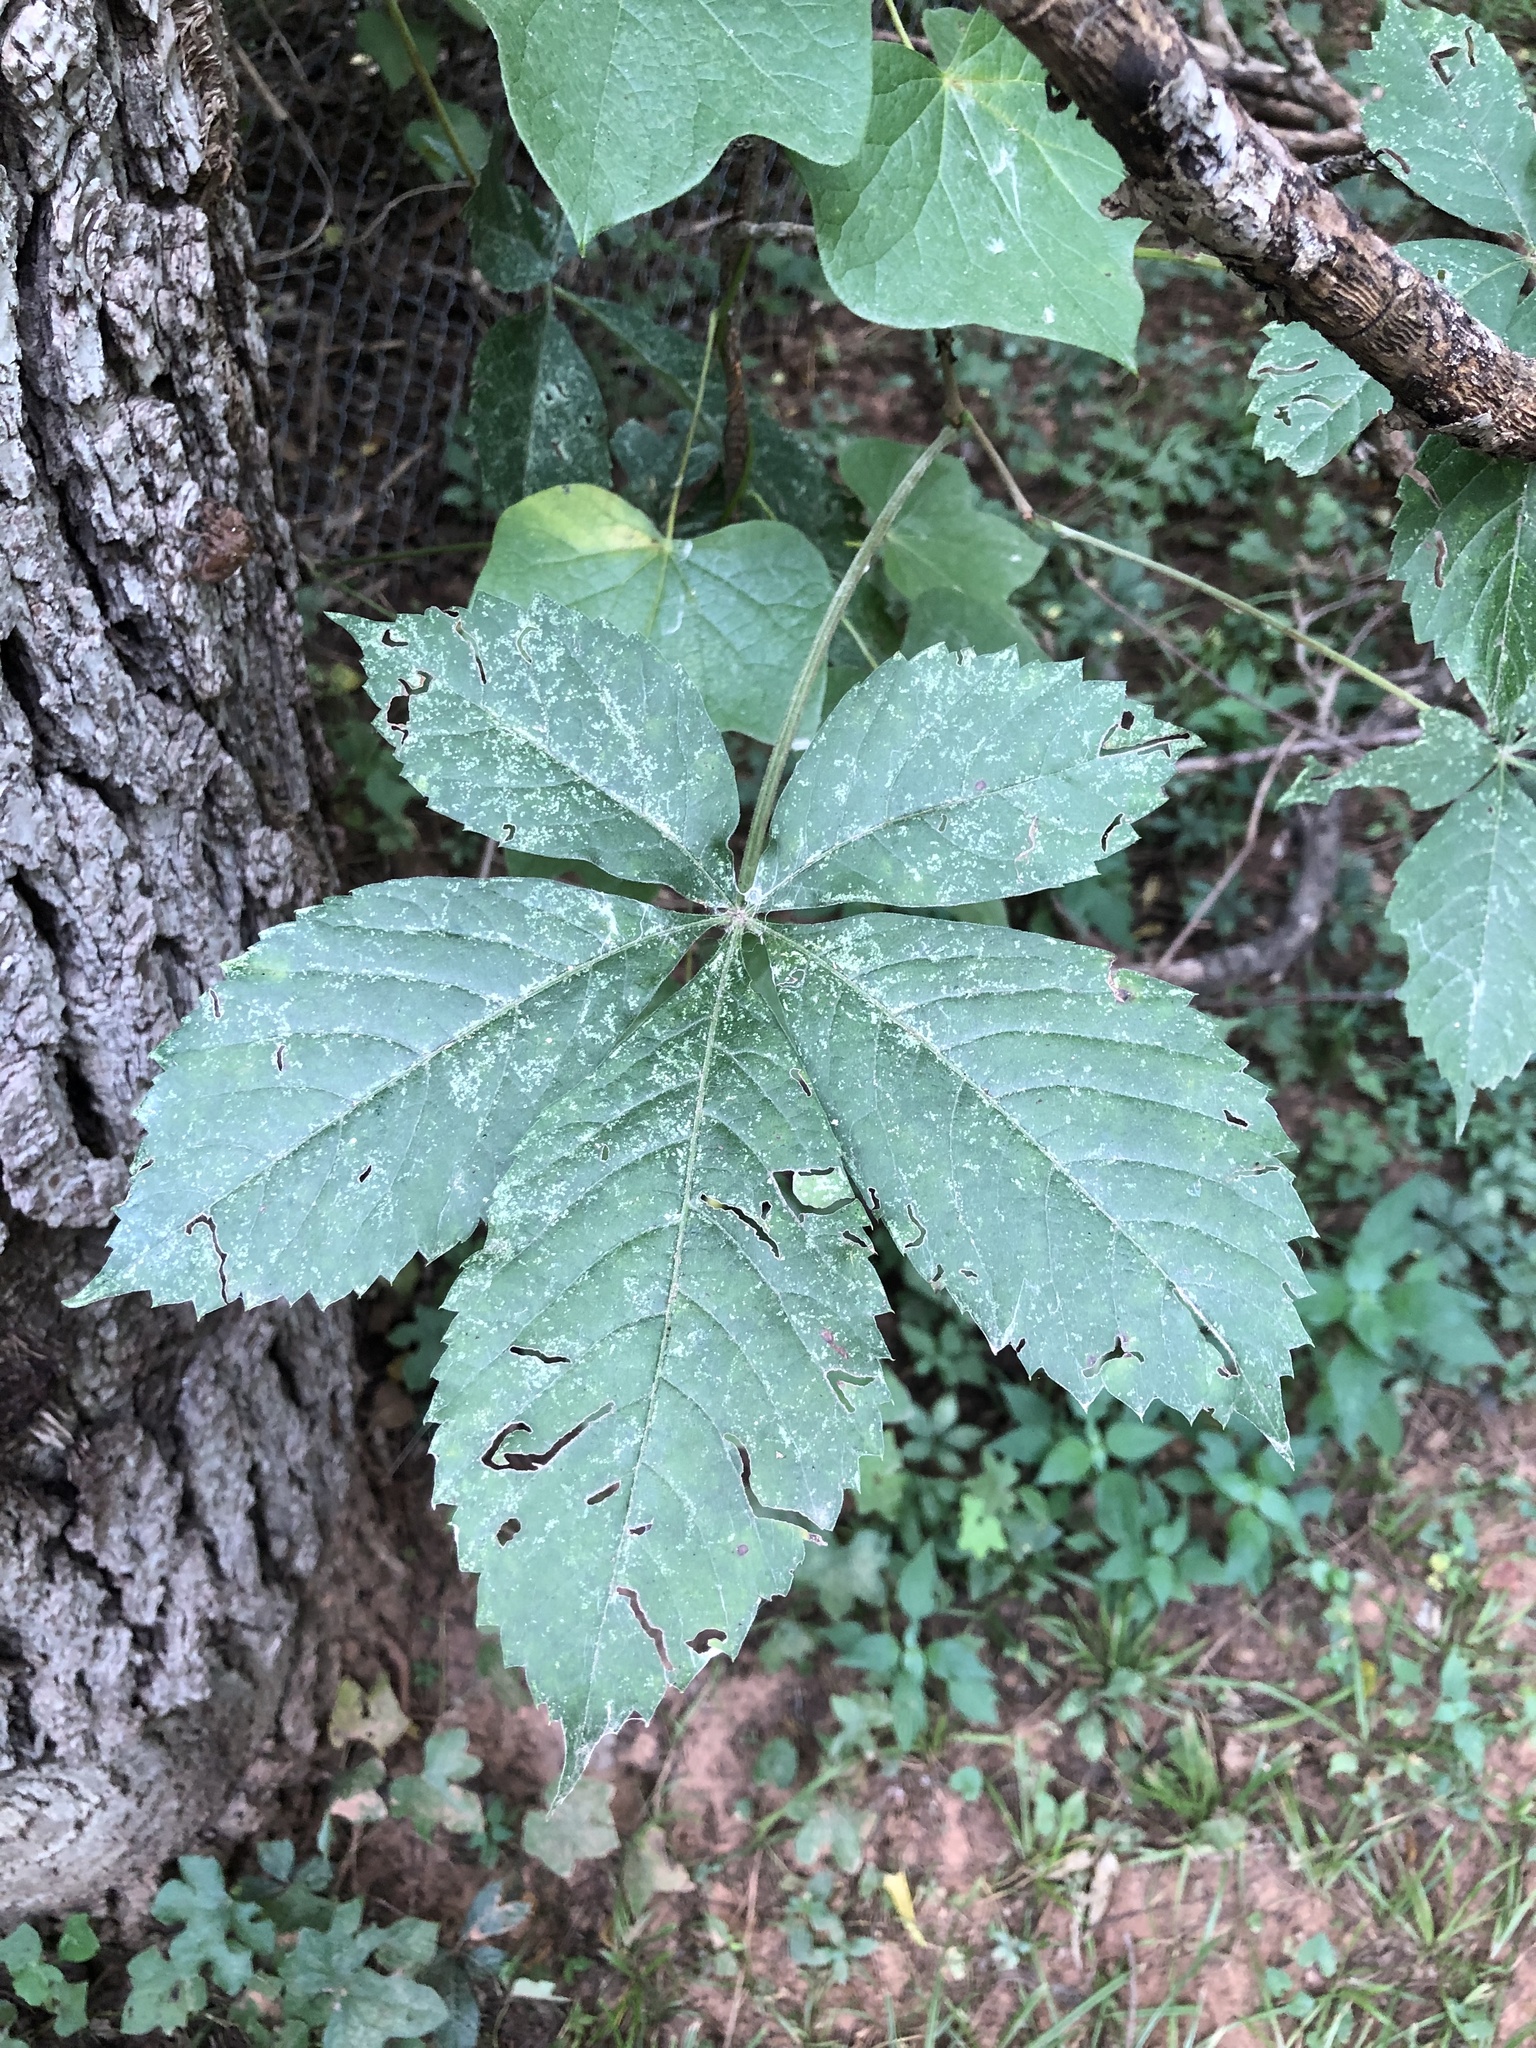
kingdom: Plantae
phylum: Tracheophyta
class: Magnoliopsida
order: Vitales
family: Vitaceae
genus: Parthenocissus
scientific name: Parthenocissus quinquefolia
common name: Virginia-creeper
